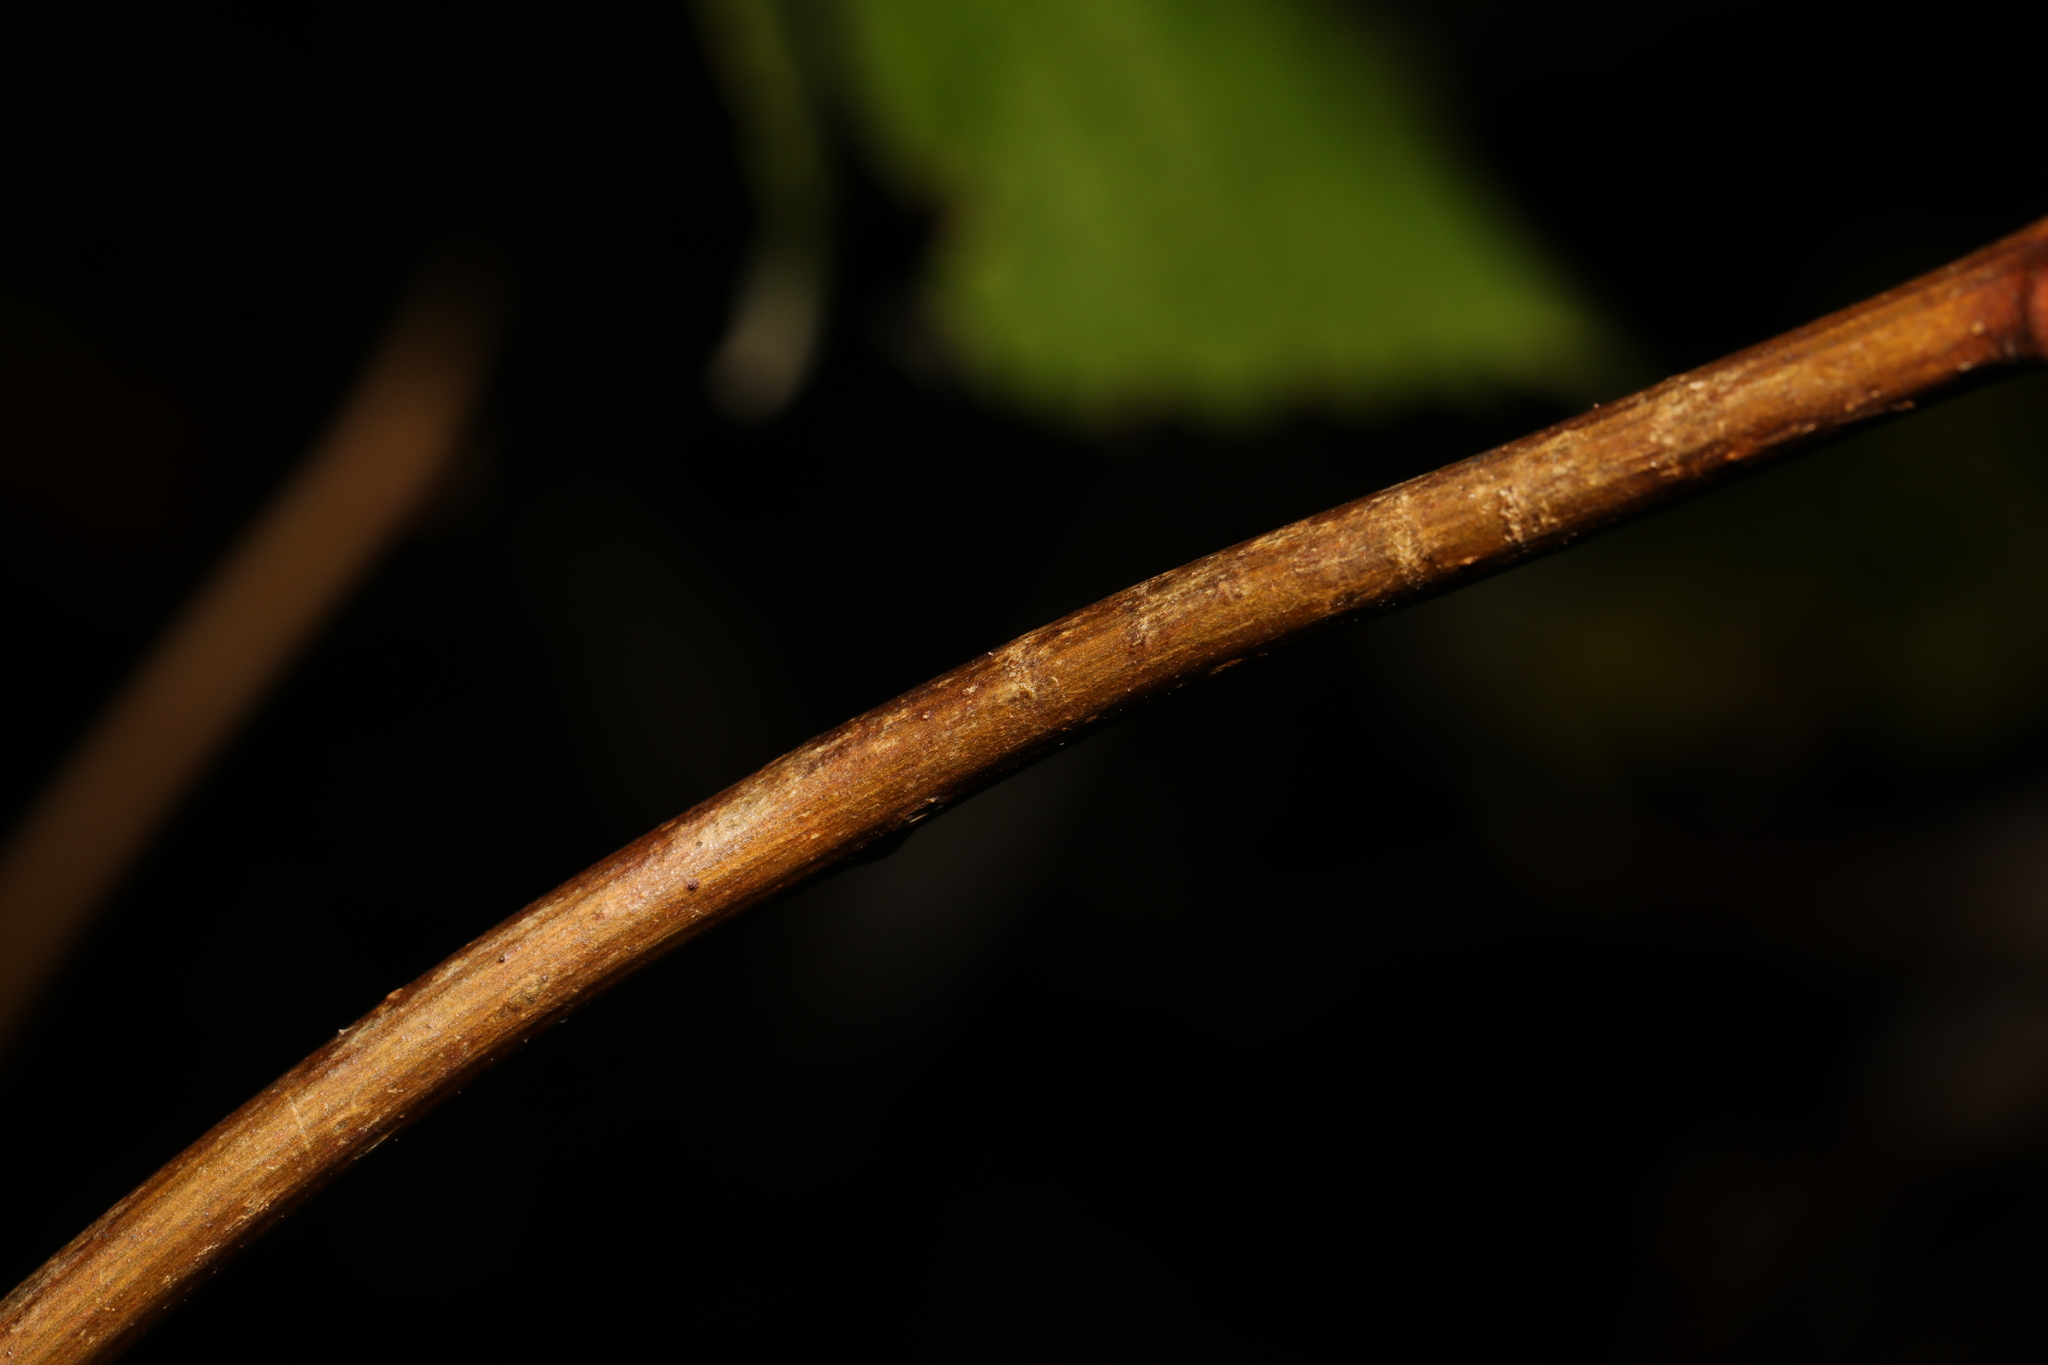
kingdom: Plantae
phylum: Tracheophyta
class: Magnoliopsida
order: Rosales
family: Rosaceae
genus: Rubus
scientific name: Rubus idaeus
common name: Raspberry
